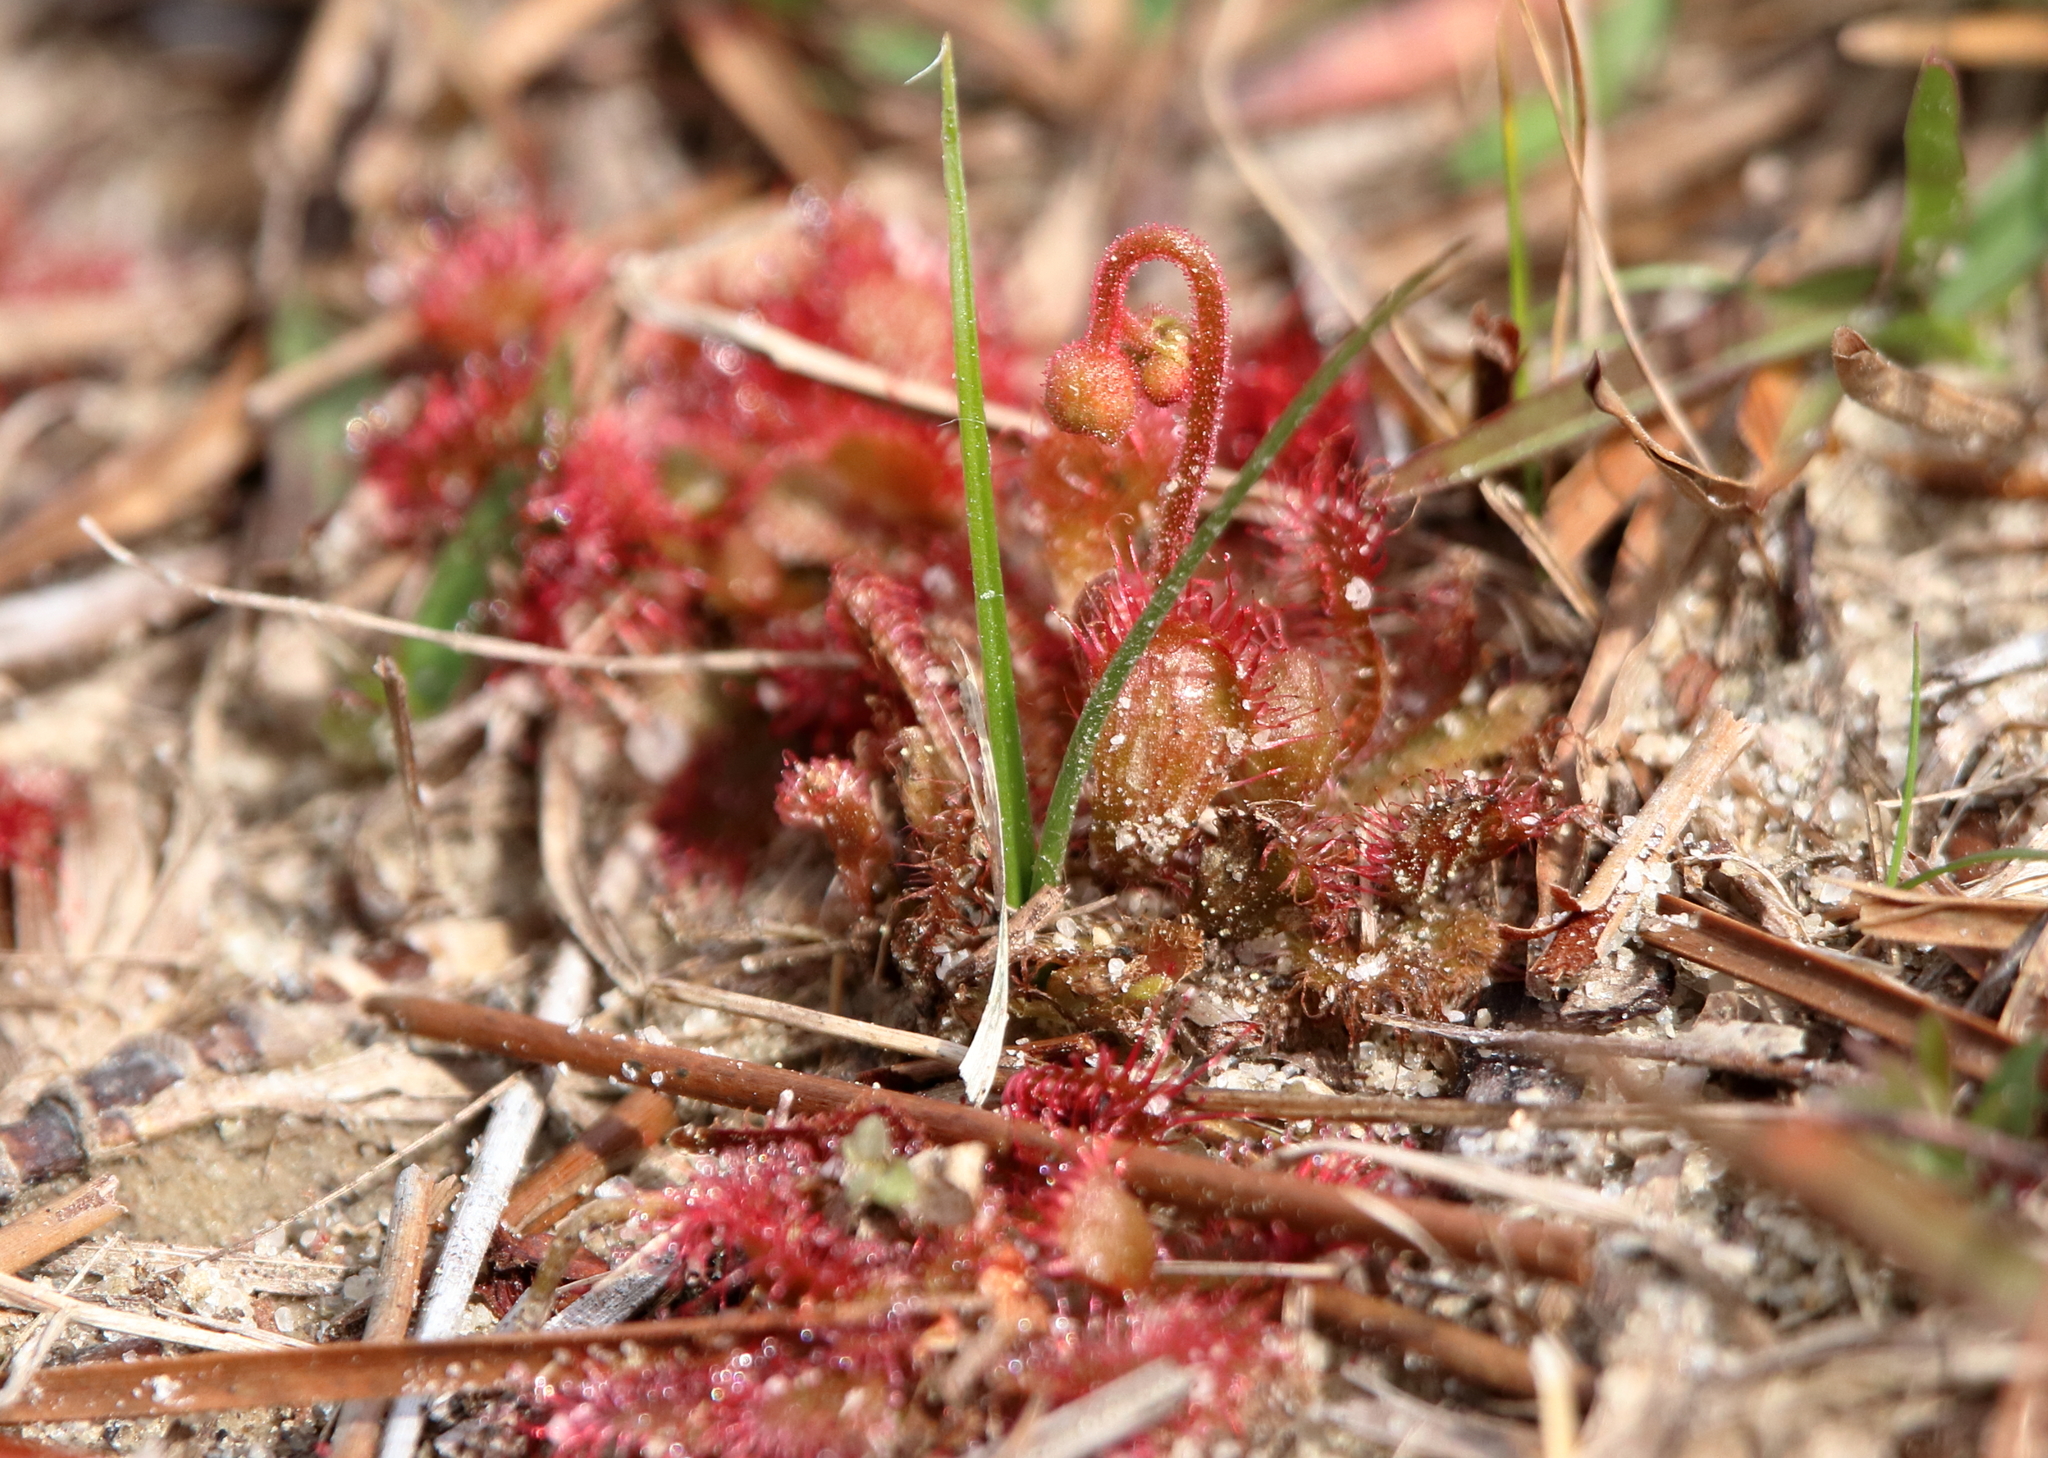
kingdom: Plantae
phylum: Tracheophyta
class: Magnoliopsida
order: Caryophyllales
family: Droseraceae
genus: Drosera
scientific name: Drosera brevifolia
